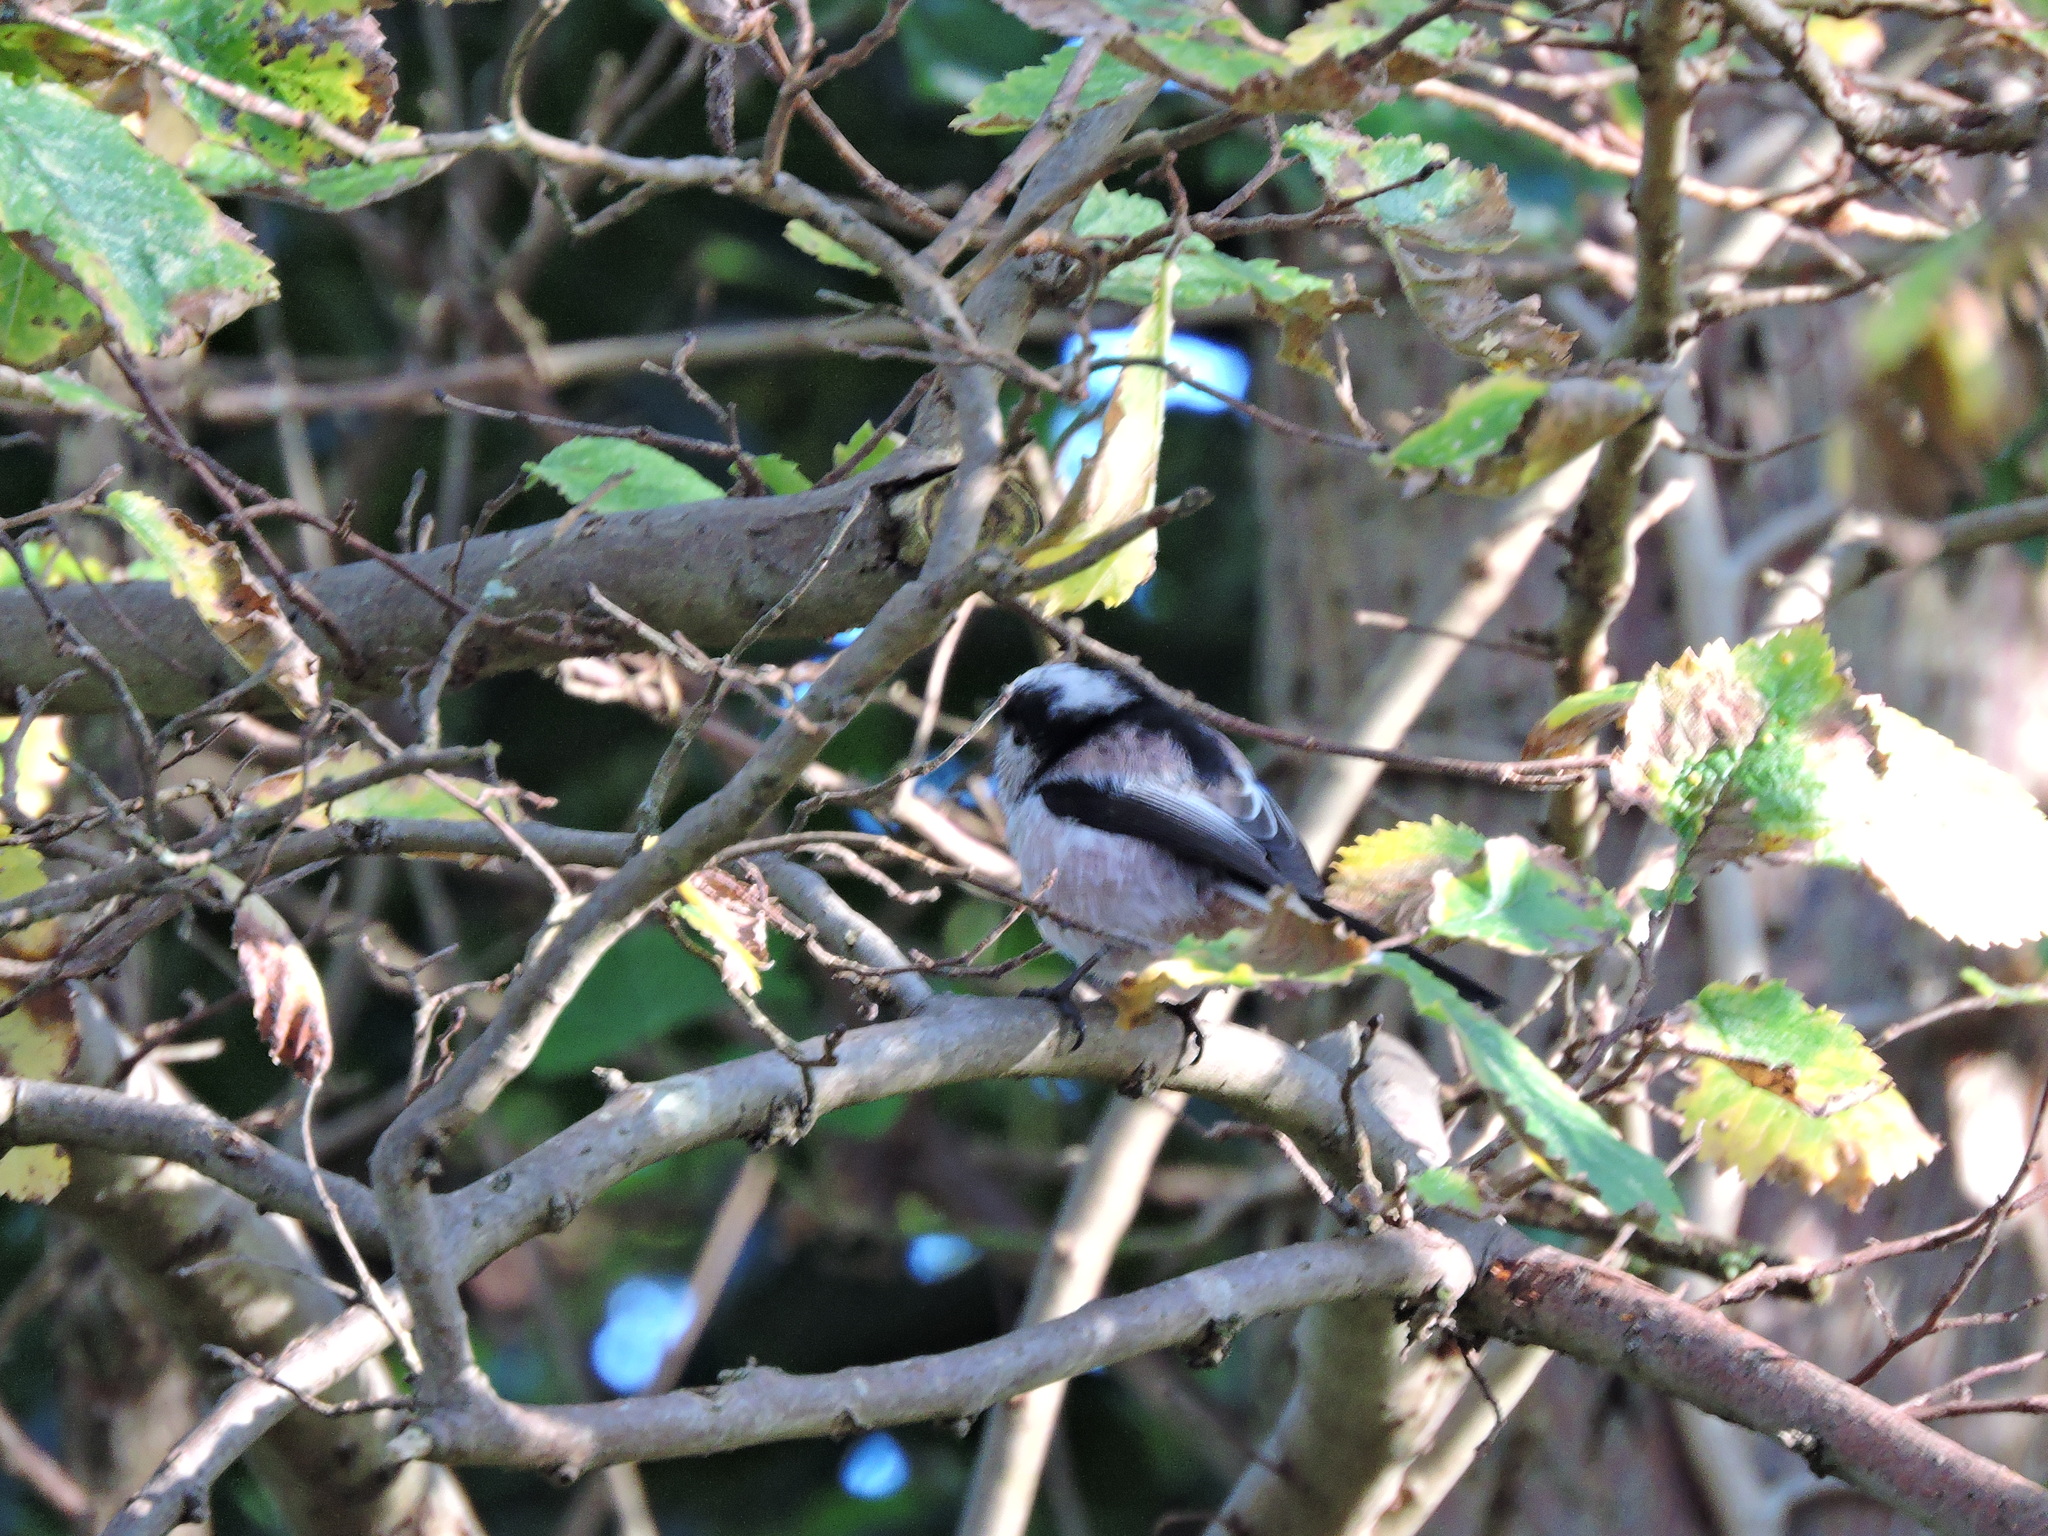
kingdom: Animalia
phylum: Chordata
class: Aves
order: Passeriformes
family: Aegithalidae
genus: Aegithalos
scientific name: Aegithalos caudatus
